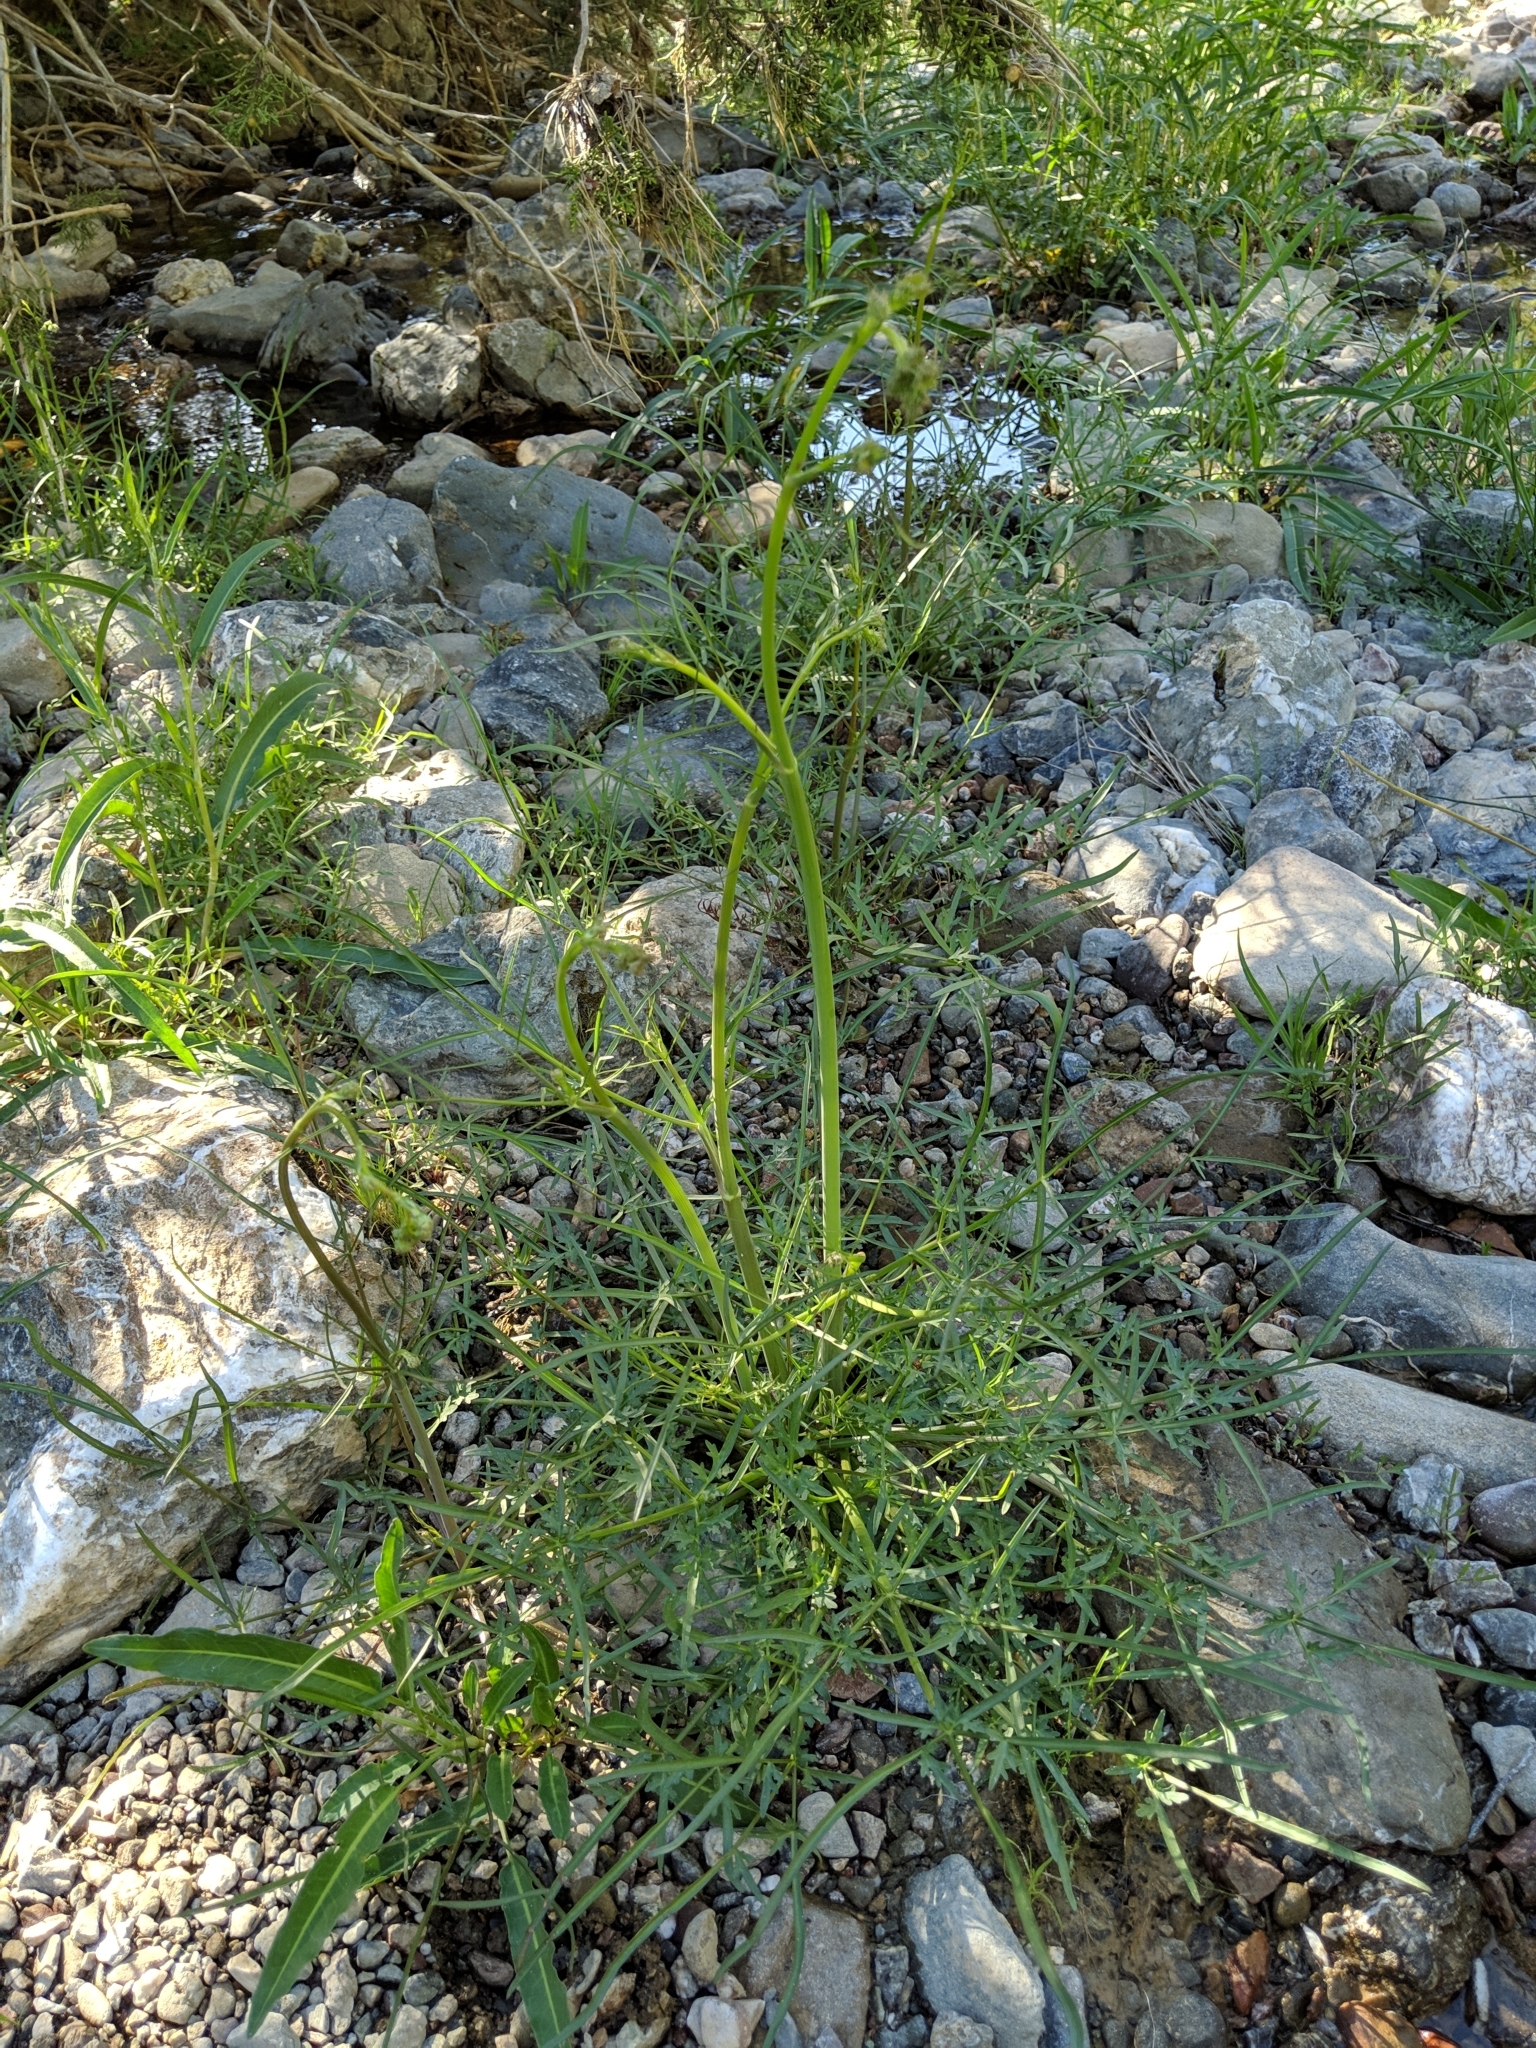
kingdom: Plantae
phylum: Tracheophyta
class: Magnoliopsida
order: Apiales
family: Apiaceae
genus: Perideridia
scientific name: Perideridia californica
